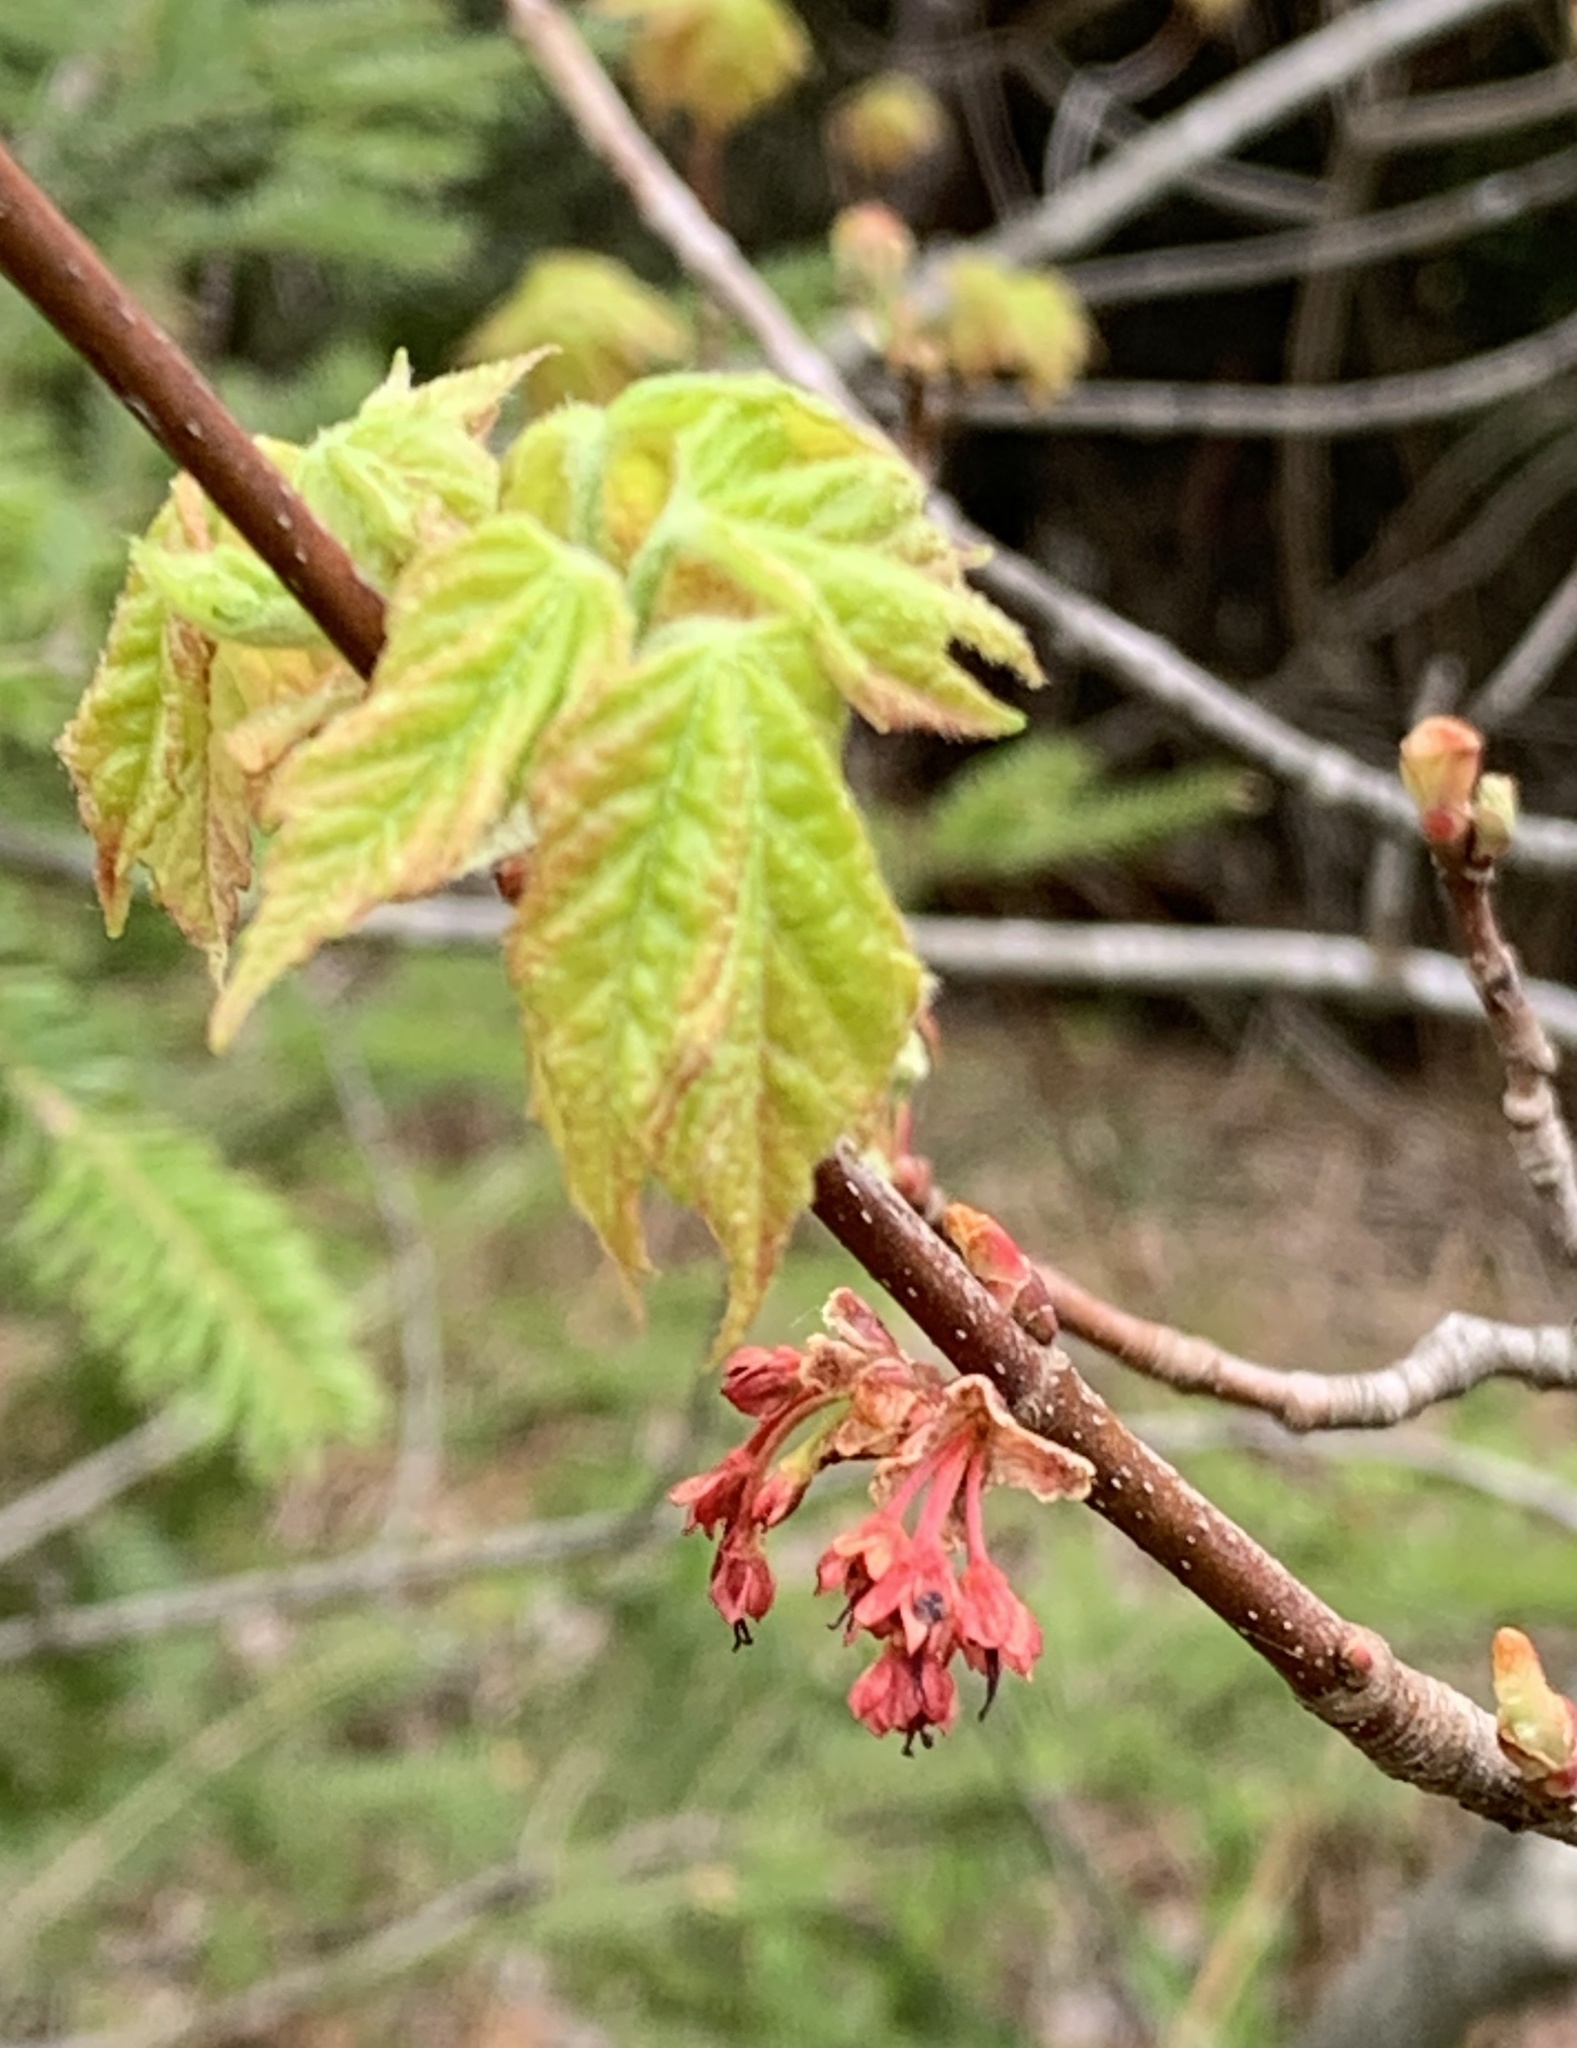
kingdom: Plantae
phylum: Tracheophyta
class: Magnoliopsida
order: Sapindales
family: Sapindaceae
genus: Acer
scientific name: Acer rubrum
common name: Red maple
